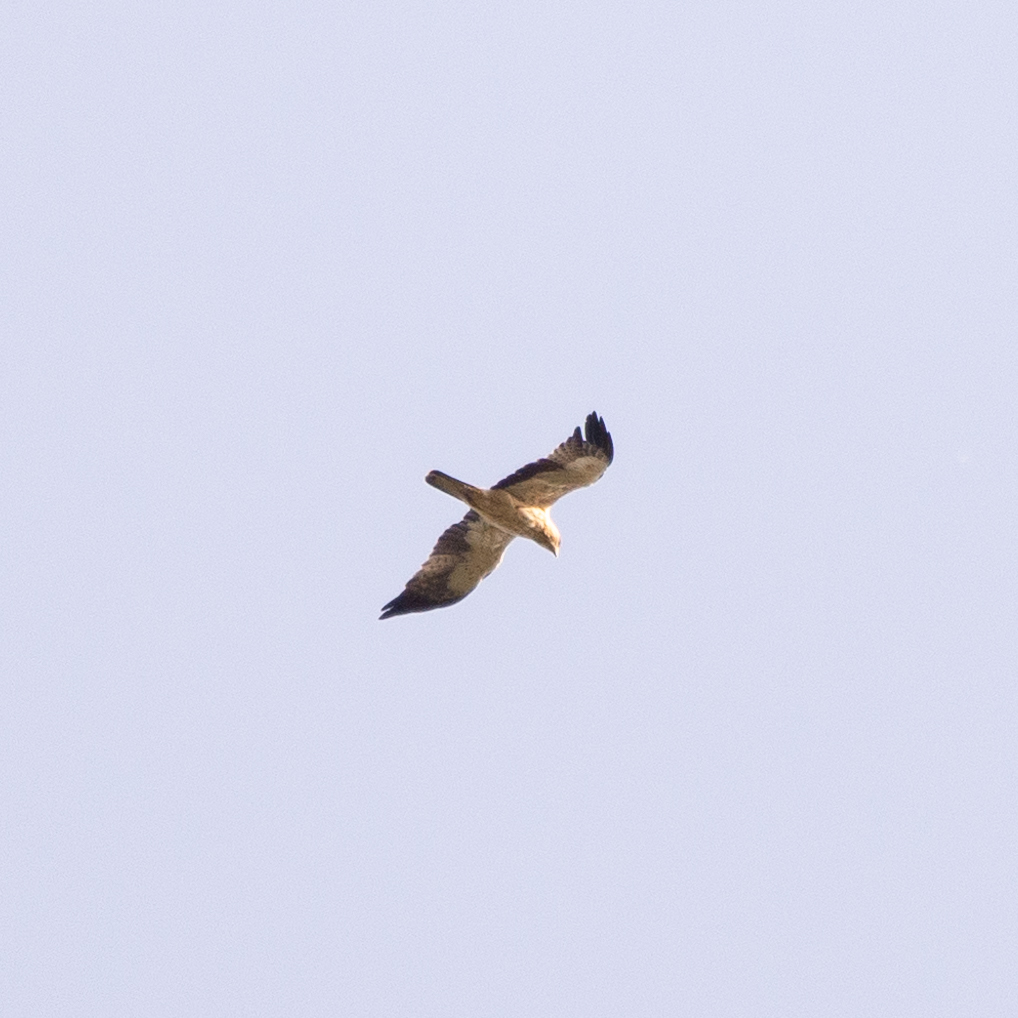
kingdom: Animalia
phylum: Chordata
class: Aves
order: Accipitriformes
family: Accipitridae
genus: Hieraaetus
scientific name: Hieraaetus pennatus
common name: Booted eagle
